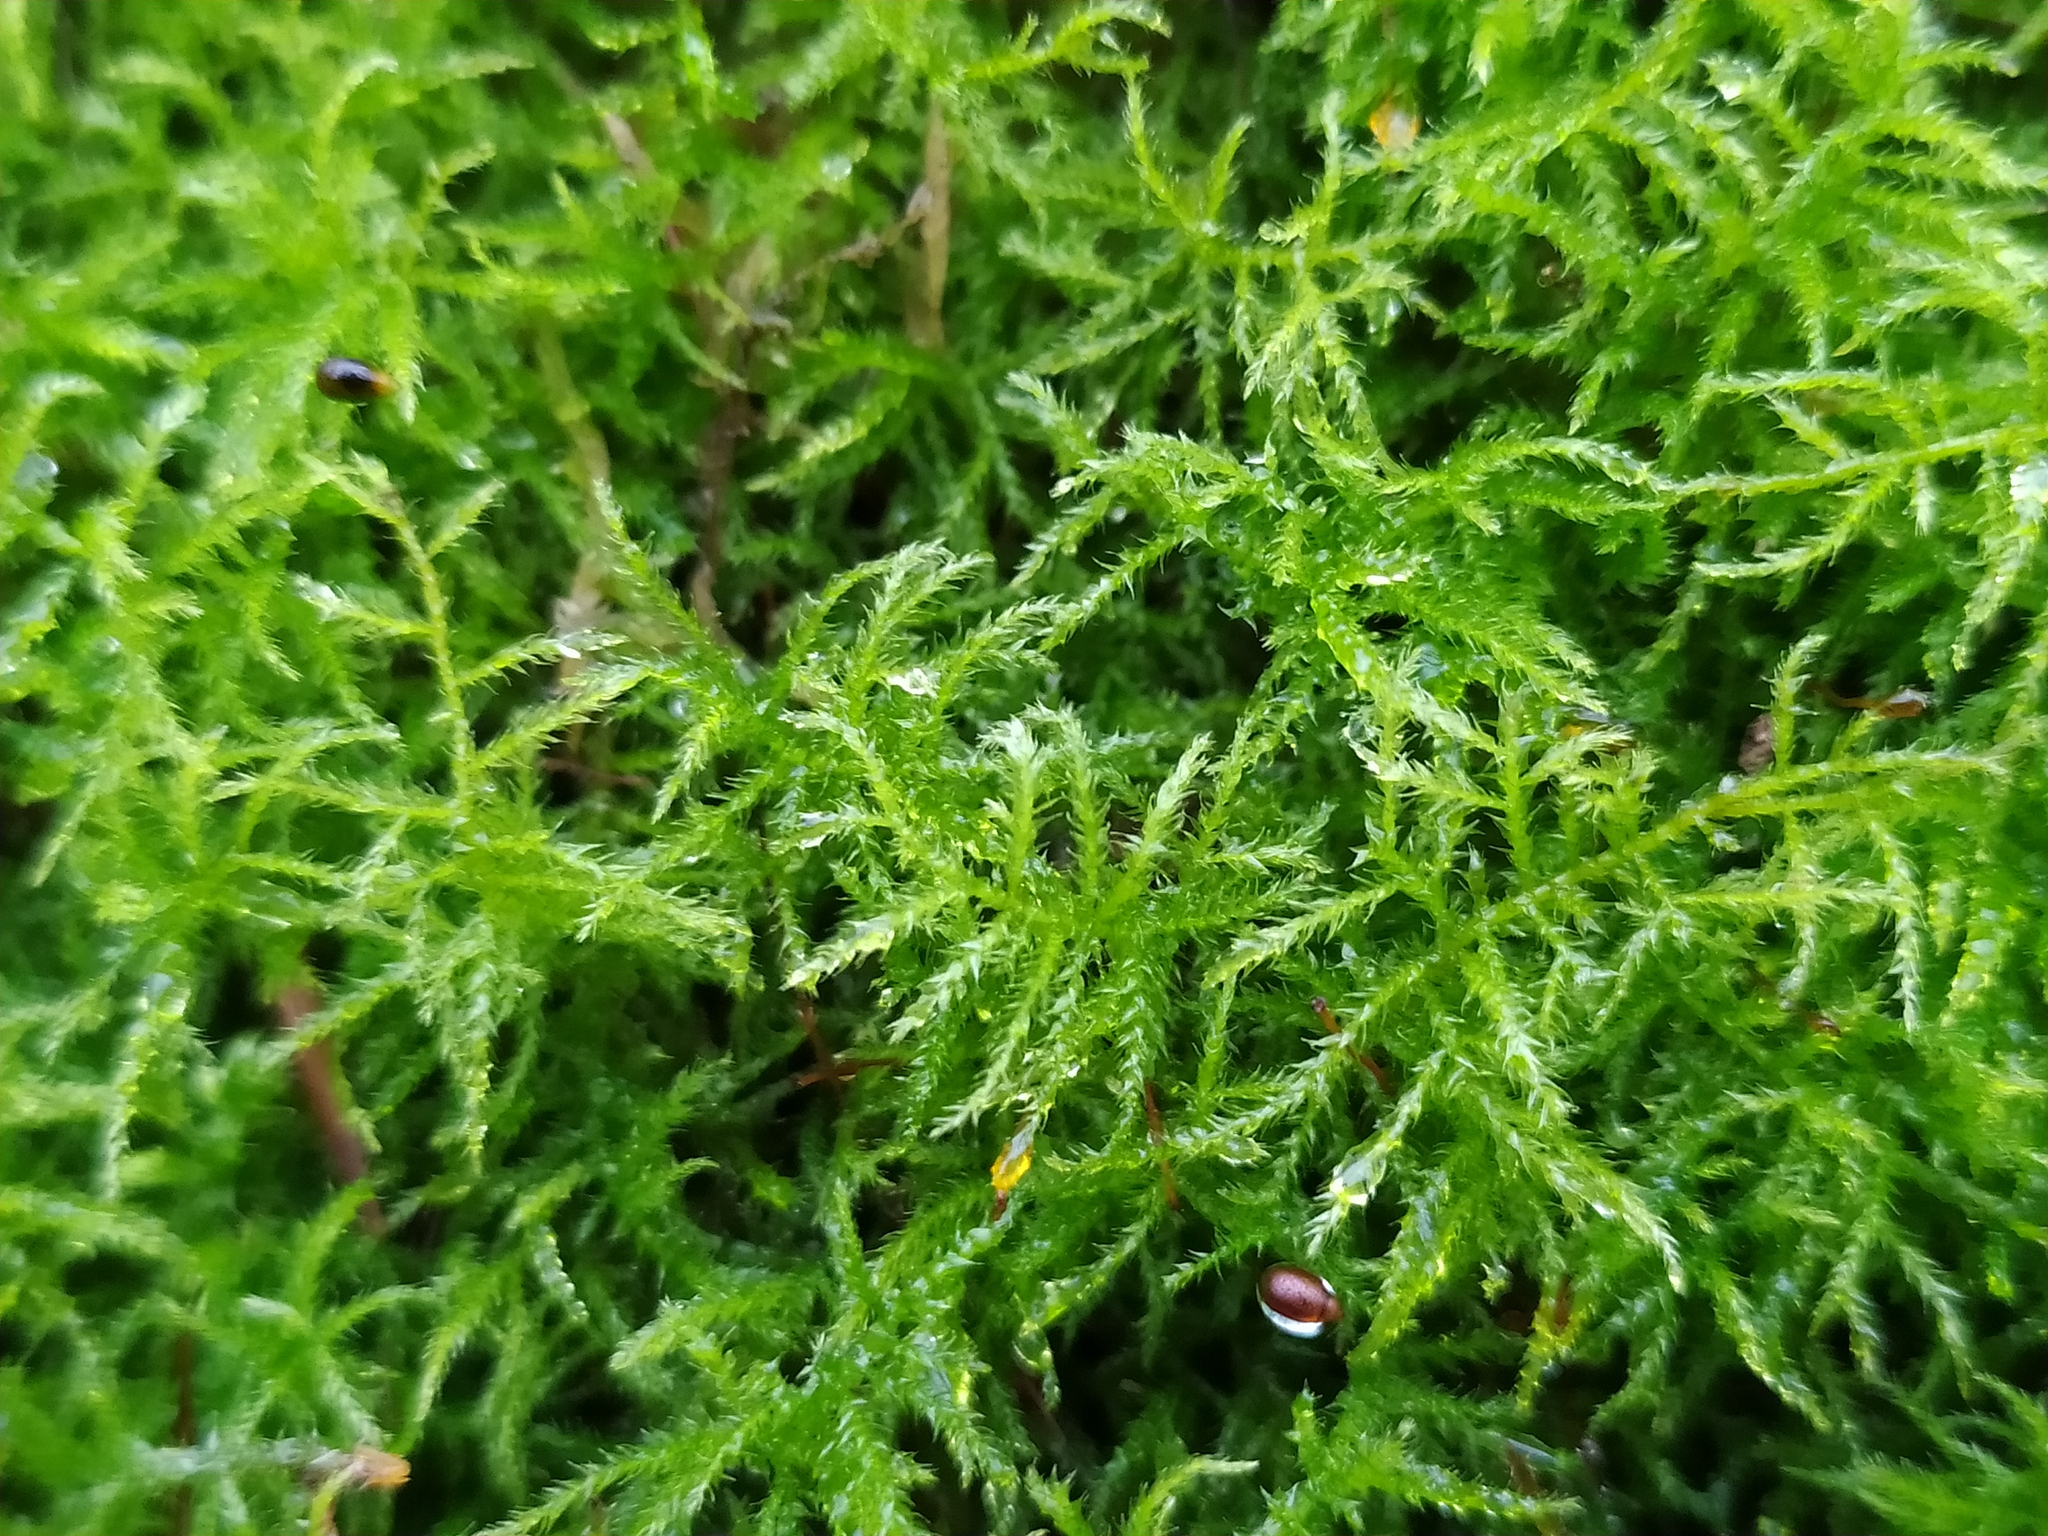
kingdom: Plantae
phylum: Bryophyta
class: Bryopsida
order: Hypnales
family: Brachytheciaceae
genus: Sciuro-hypnum
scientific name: Sciuro-hypnum reflexum
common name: Reflexed feather-moss
